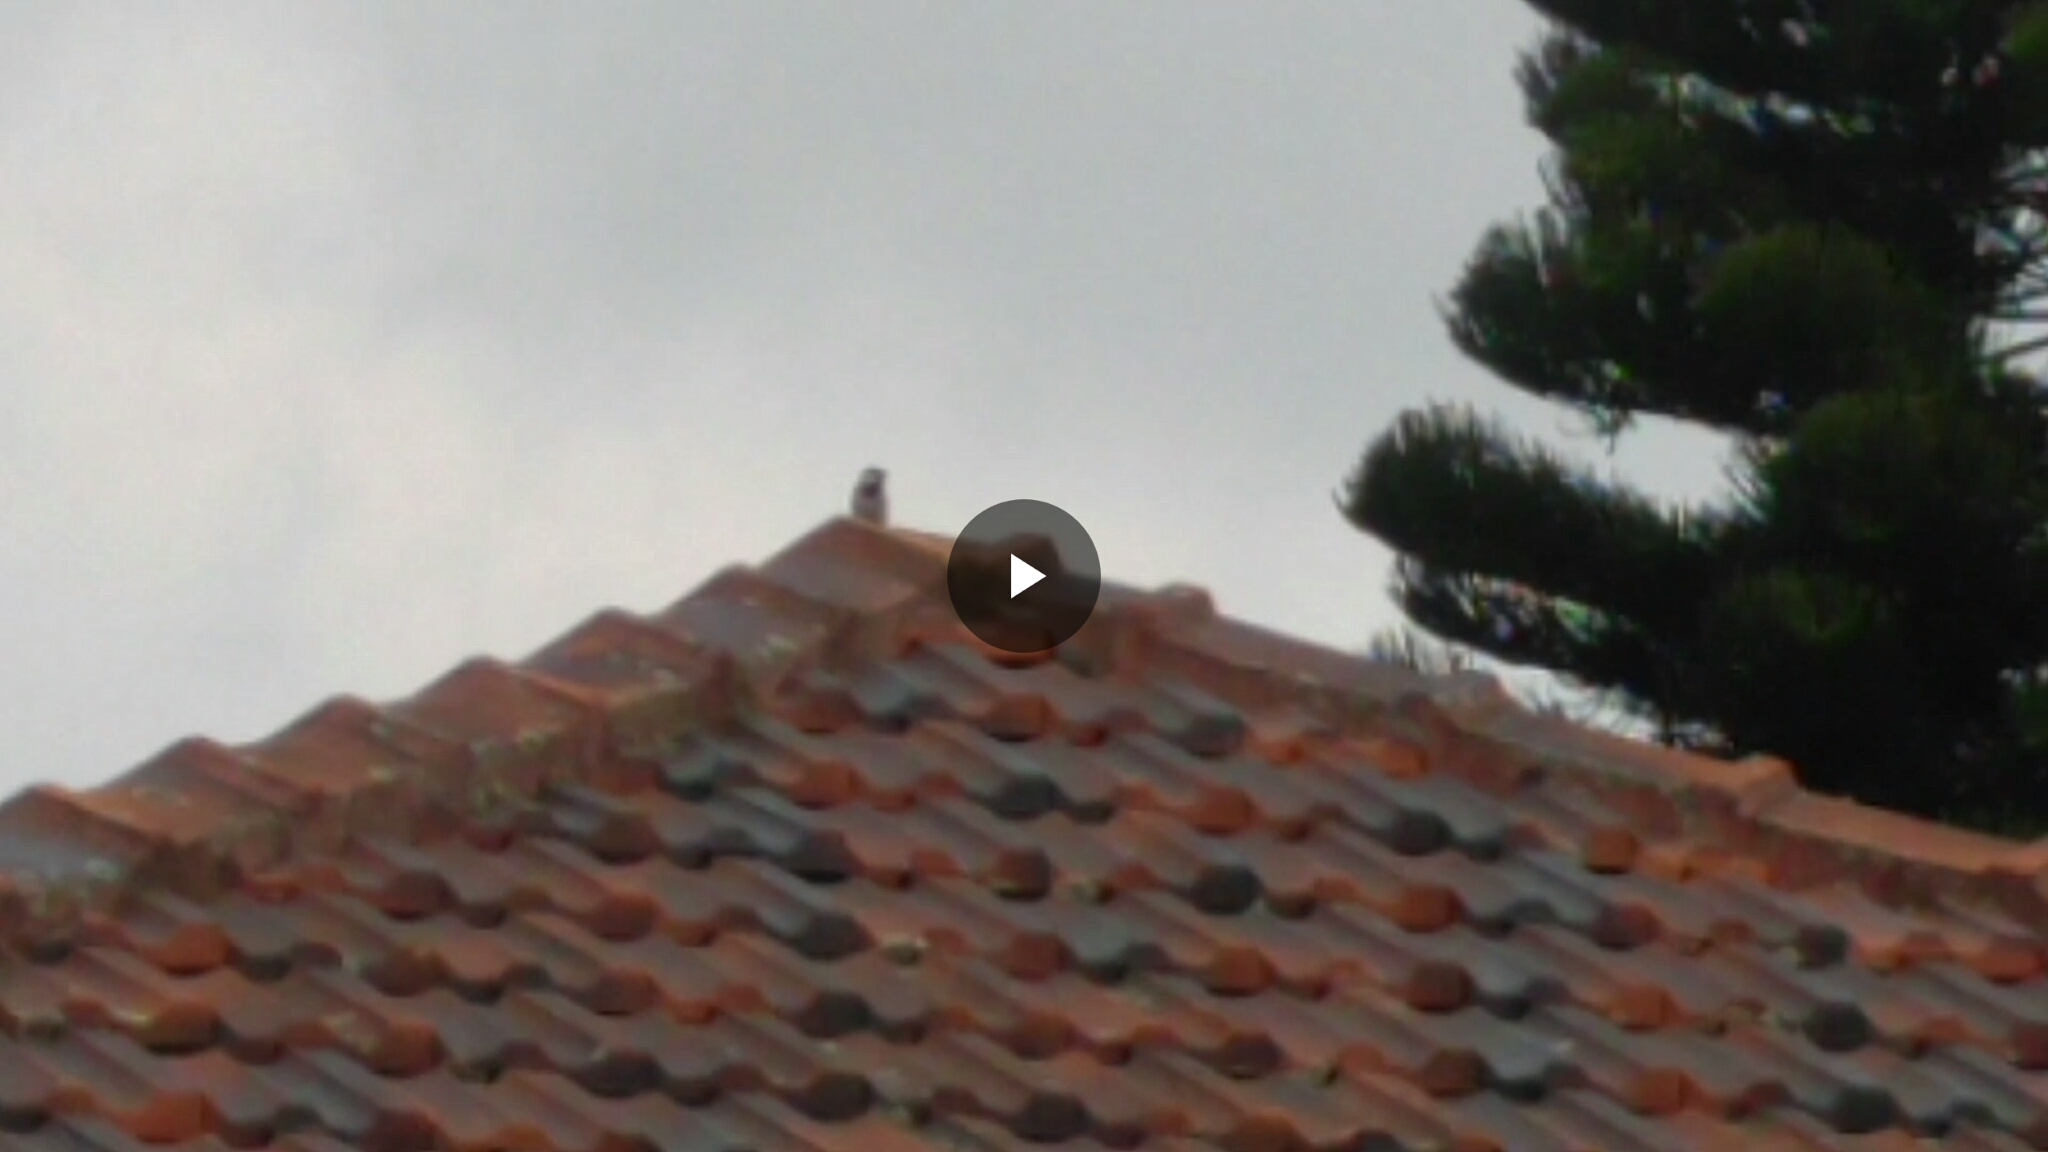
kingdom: Animalia
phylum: Chordata
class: Aves
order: Passeriformes
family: Passeridae
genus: Passer
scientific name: Passer domesticus
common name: House sparrow
